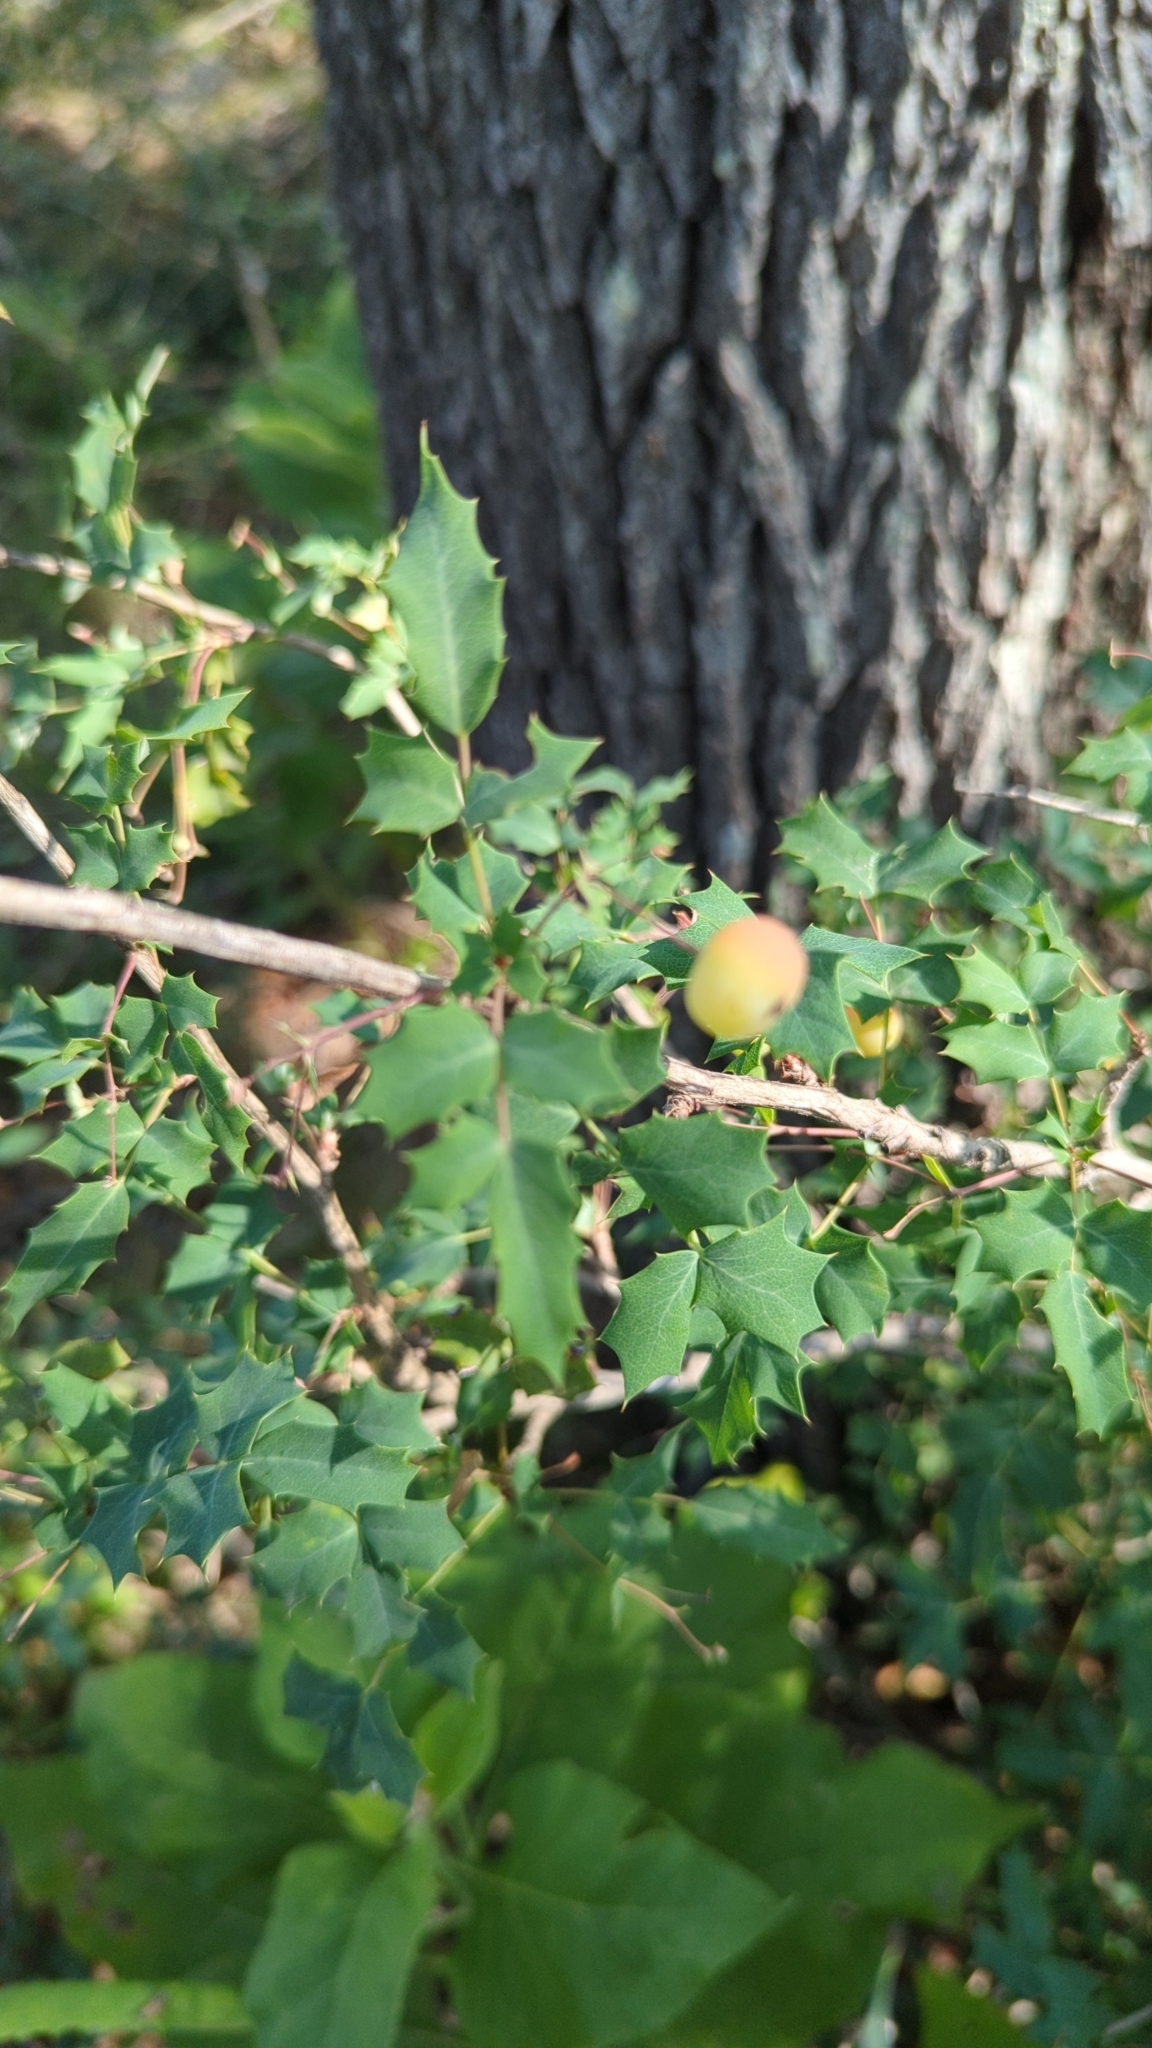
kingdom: Plantae
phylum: Tracheophyta
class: Magnoliopsida
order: Ranunculales
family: Berberidaceae
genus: Berberis
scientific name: Berberis swaseyi
